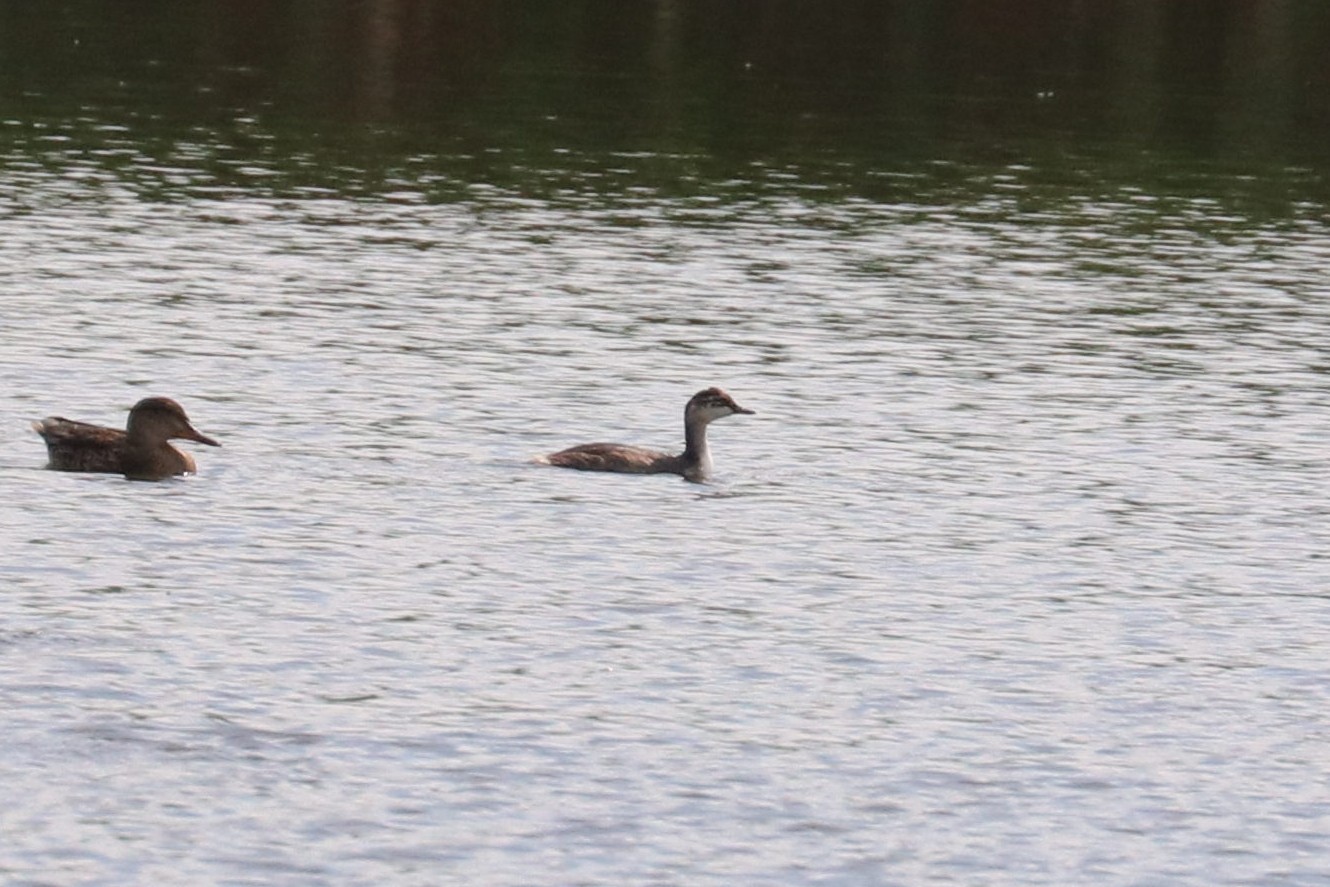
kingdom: Animalia
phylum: Chordata
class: Aves
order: Podicipediformes
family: Podicipedidae
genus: Podiceps
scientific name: Podiceps nigricollis
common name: Black-necked grebe
